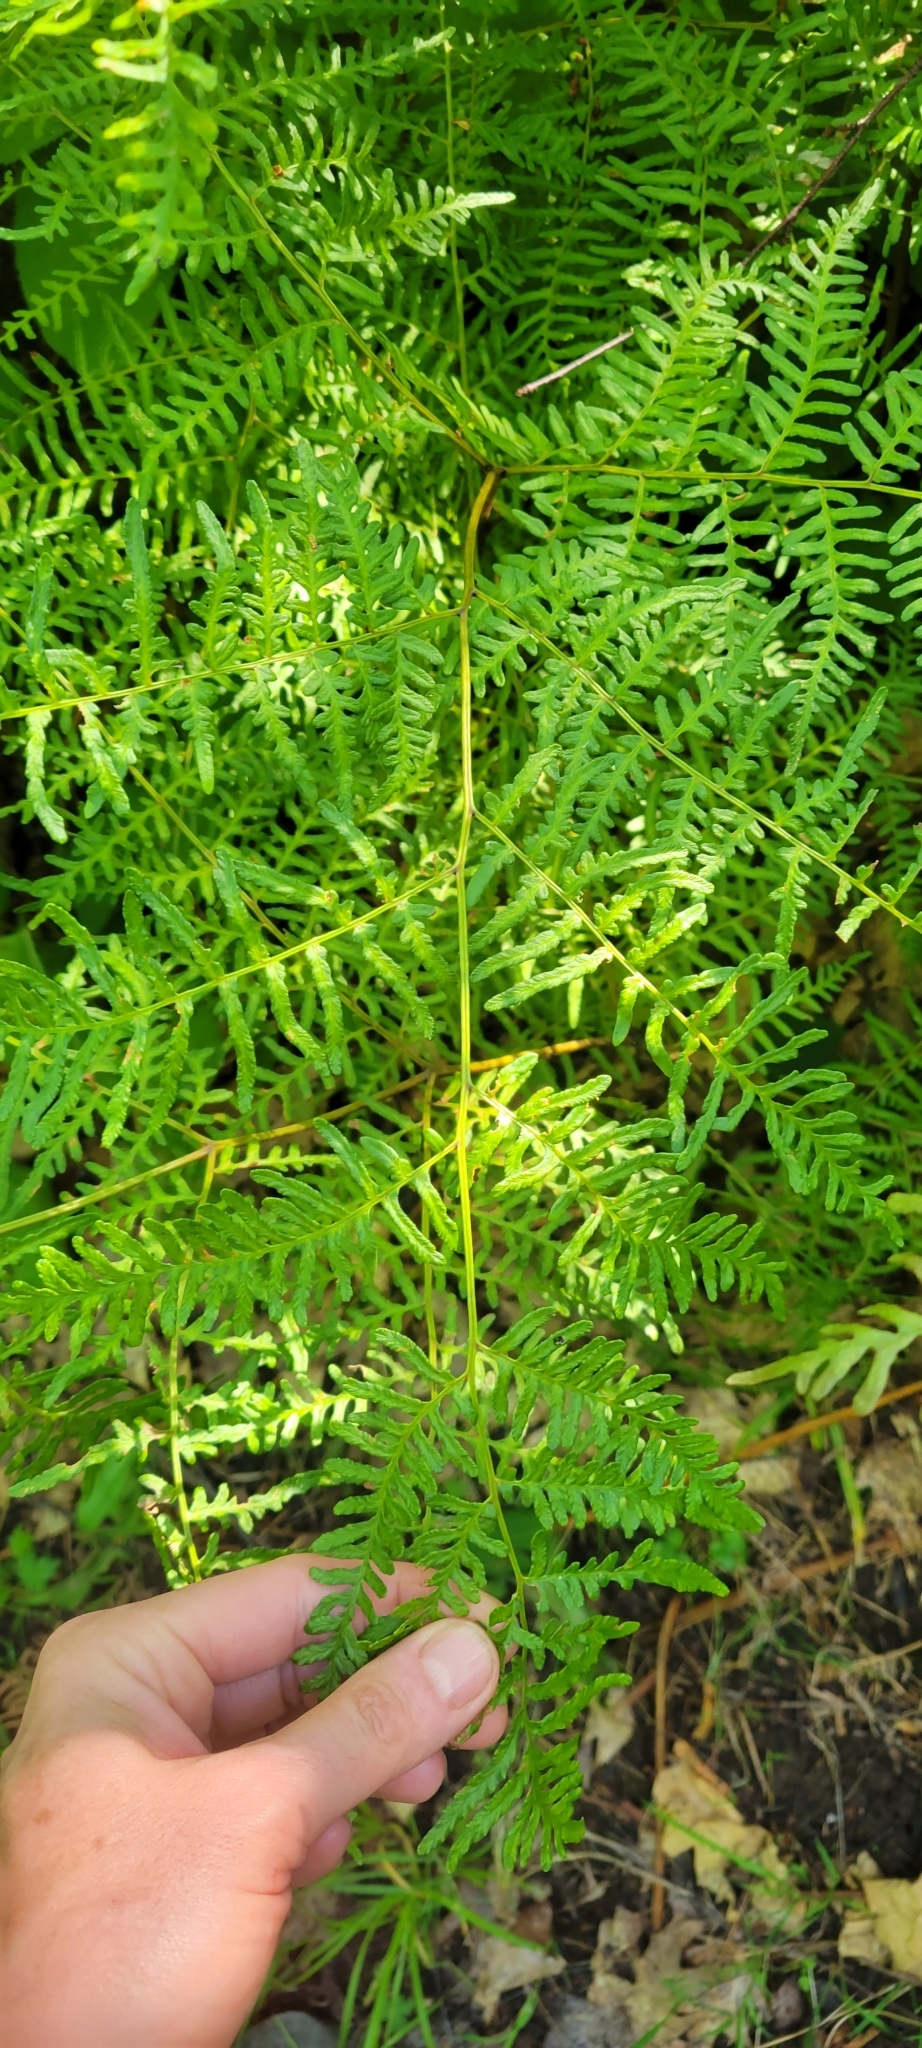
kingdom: Plantae
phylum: Tracheophyta
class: Polypodiopsida
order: Polypodiales
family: Athyriaceae
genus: Athyrium
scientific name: Athyrium angustum
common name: Northern lady fern
